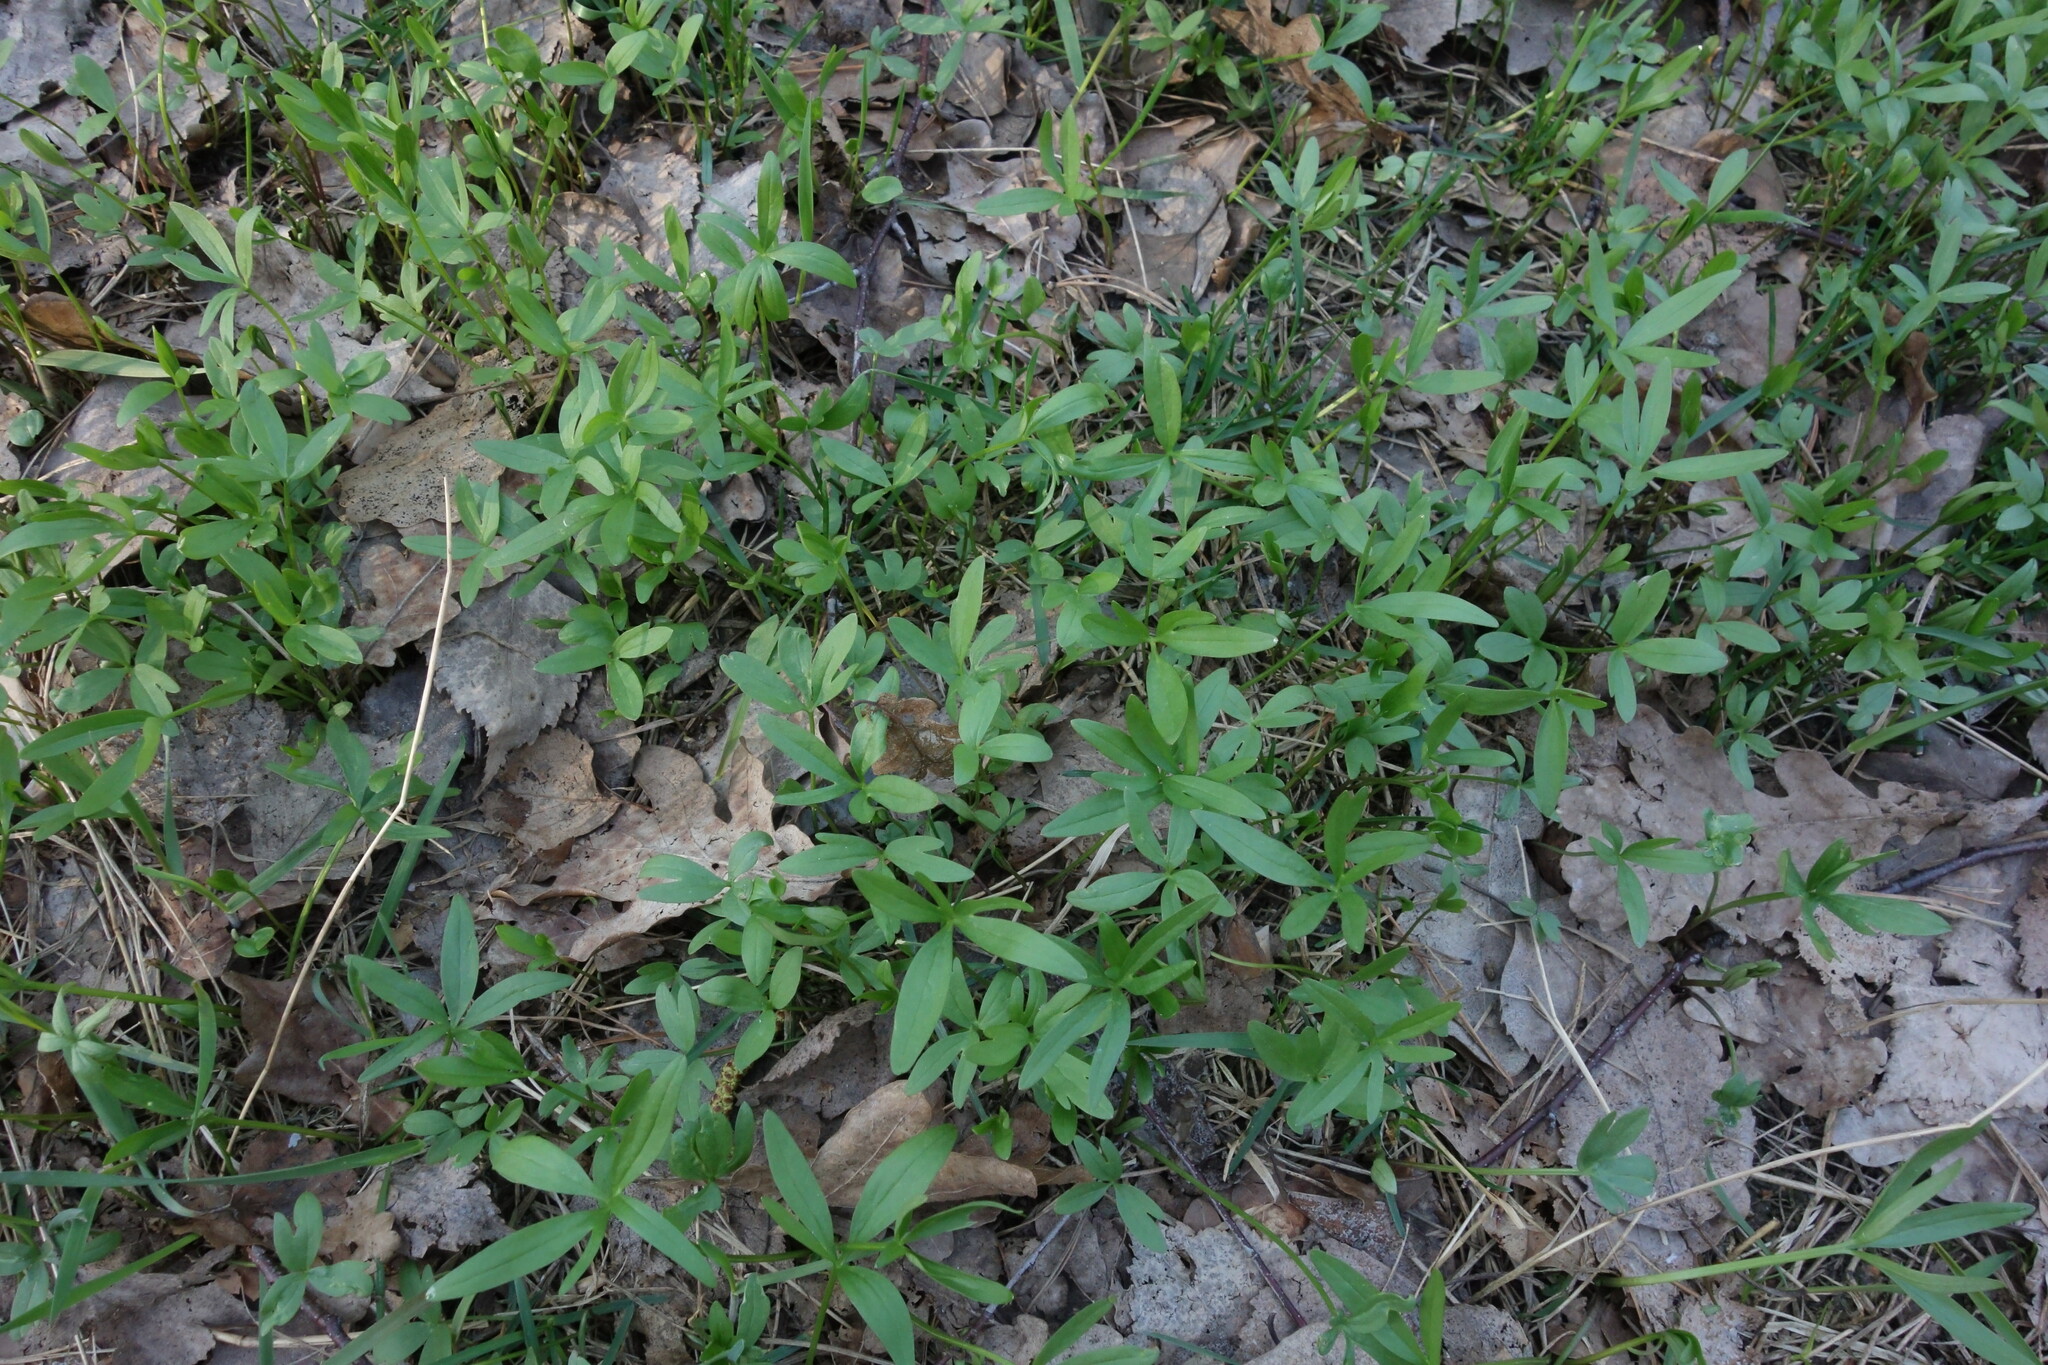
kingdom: Plantae
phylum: Tracheophyta
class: Magnoliopsida
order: Ranunculales
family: Ranunculaceae
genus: Ranunculus
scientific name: Ranunculus pedatus
